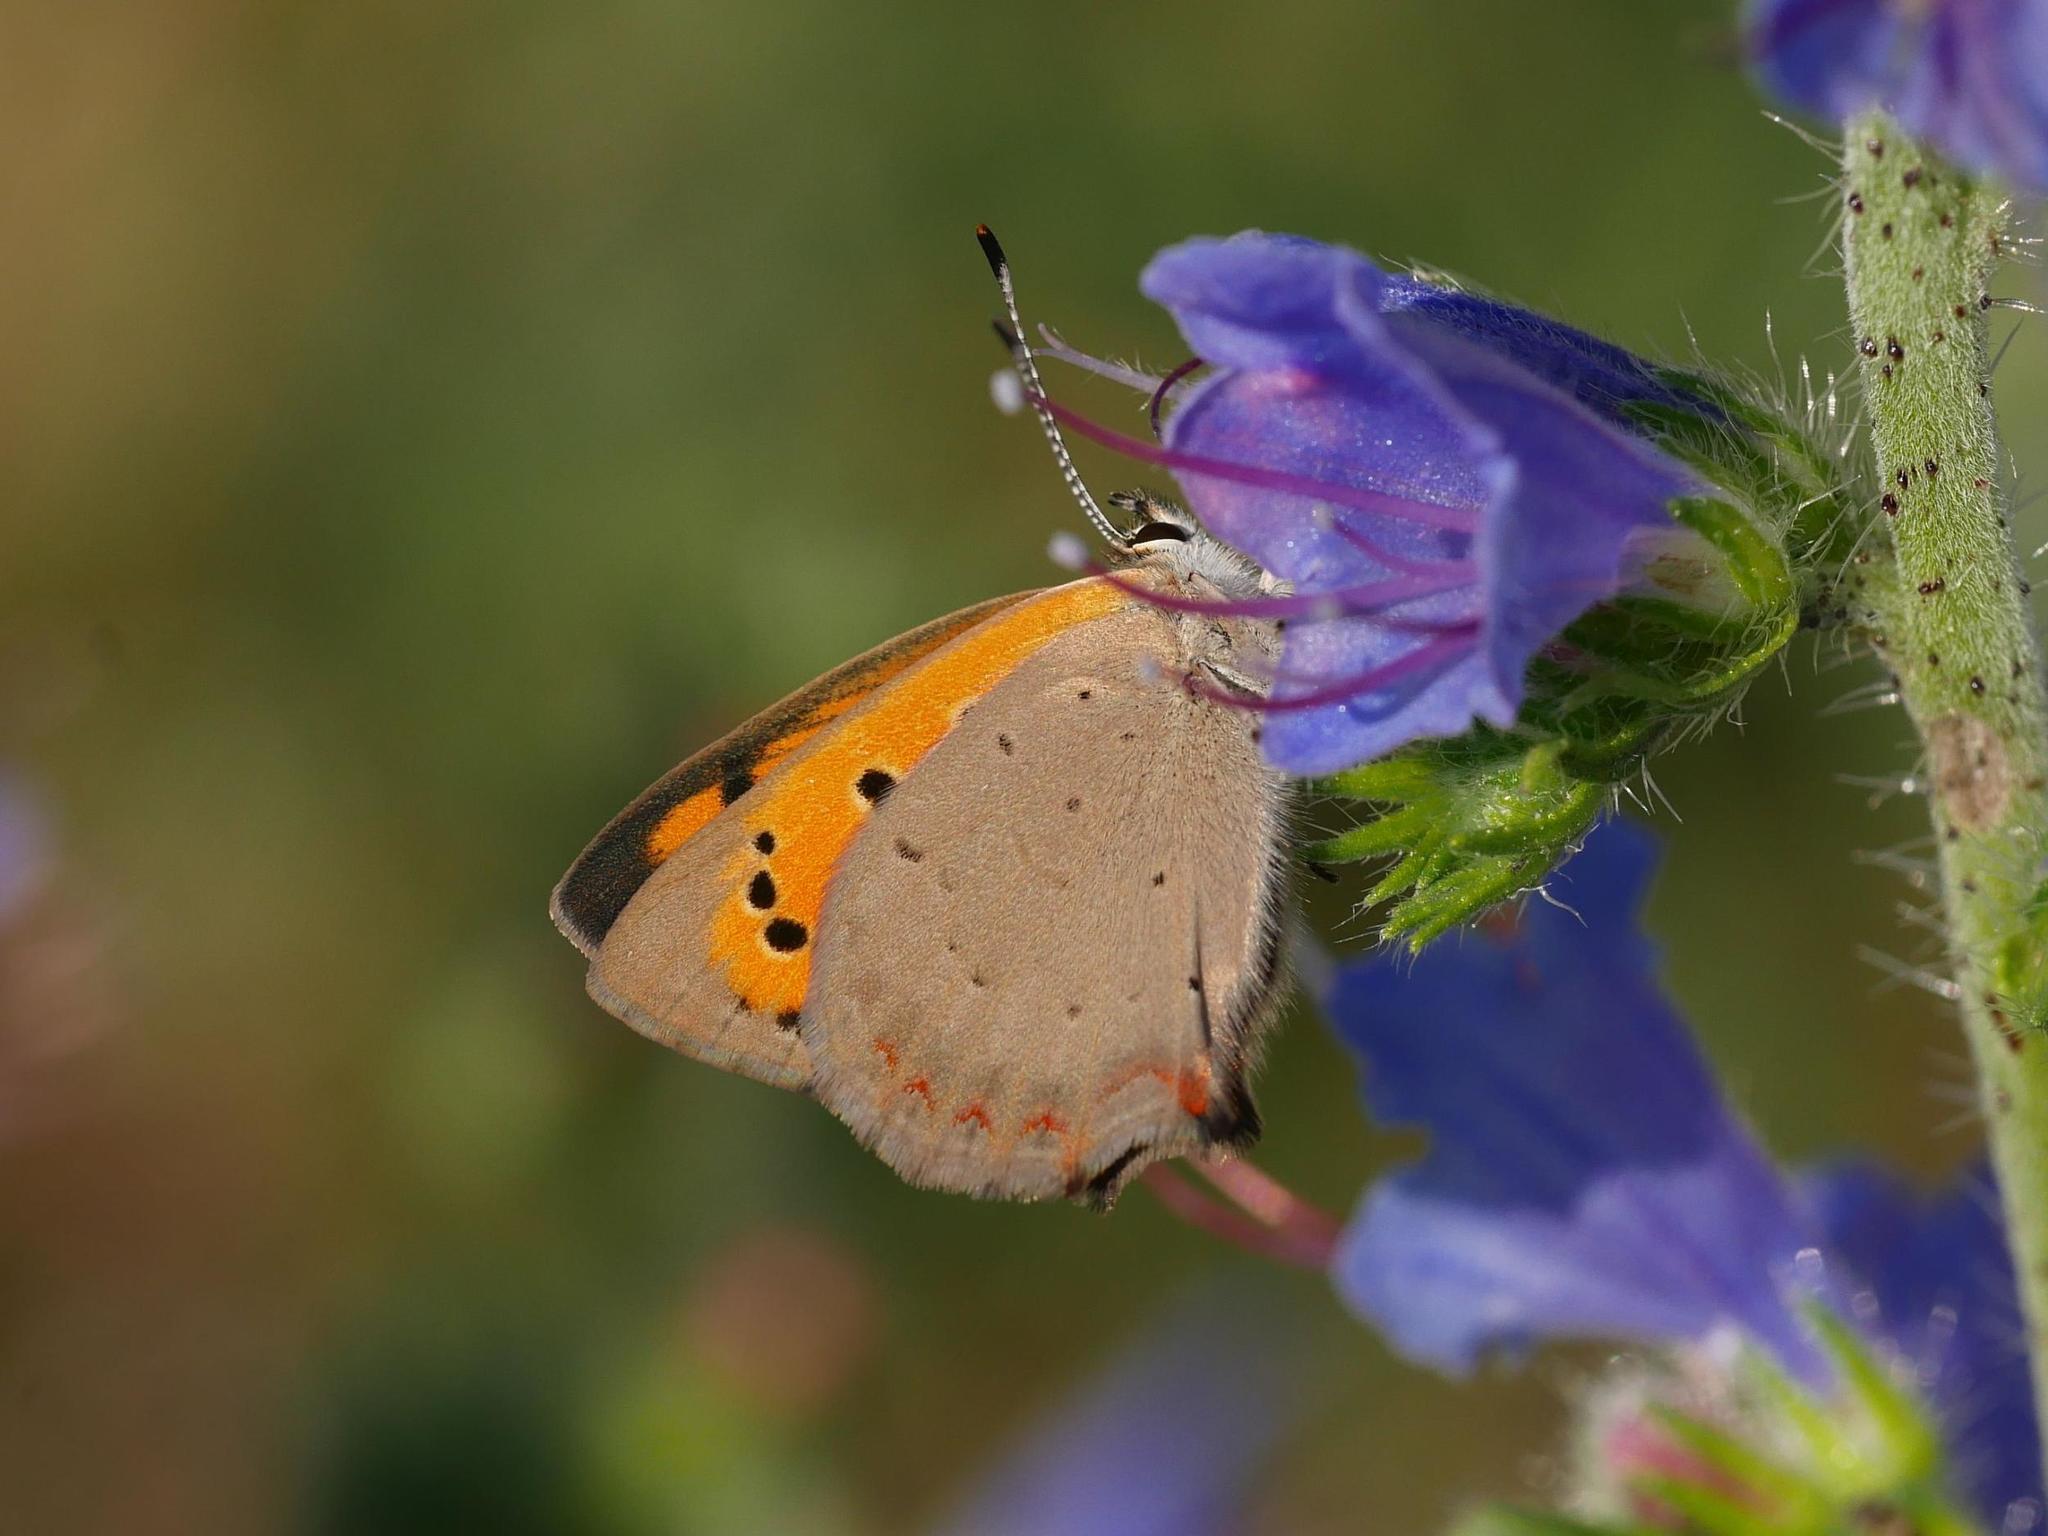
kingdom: Animalia
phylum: Arthropoda
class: Insecta
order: Lepidoptera
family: Lycaenidae
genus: Lycaena
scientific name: Lycaena phlaeas
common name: Small copper
